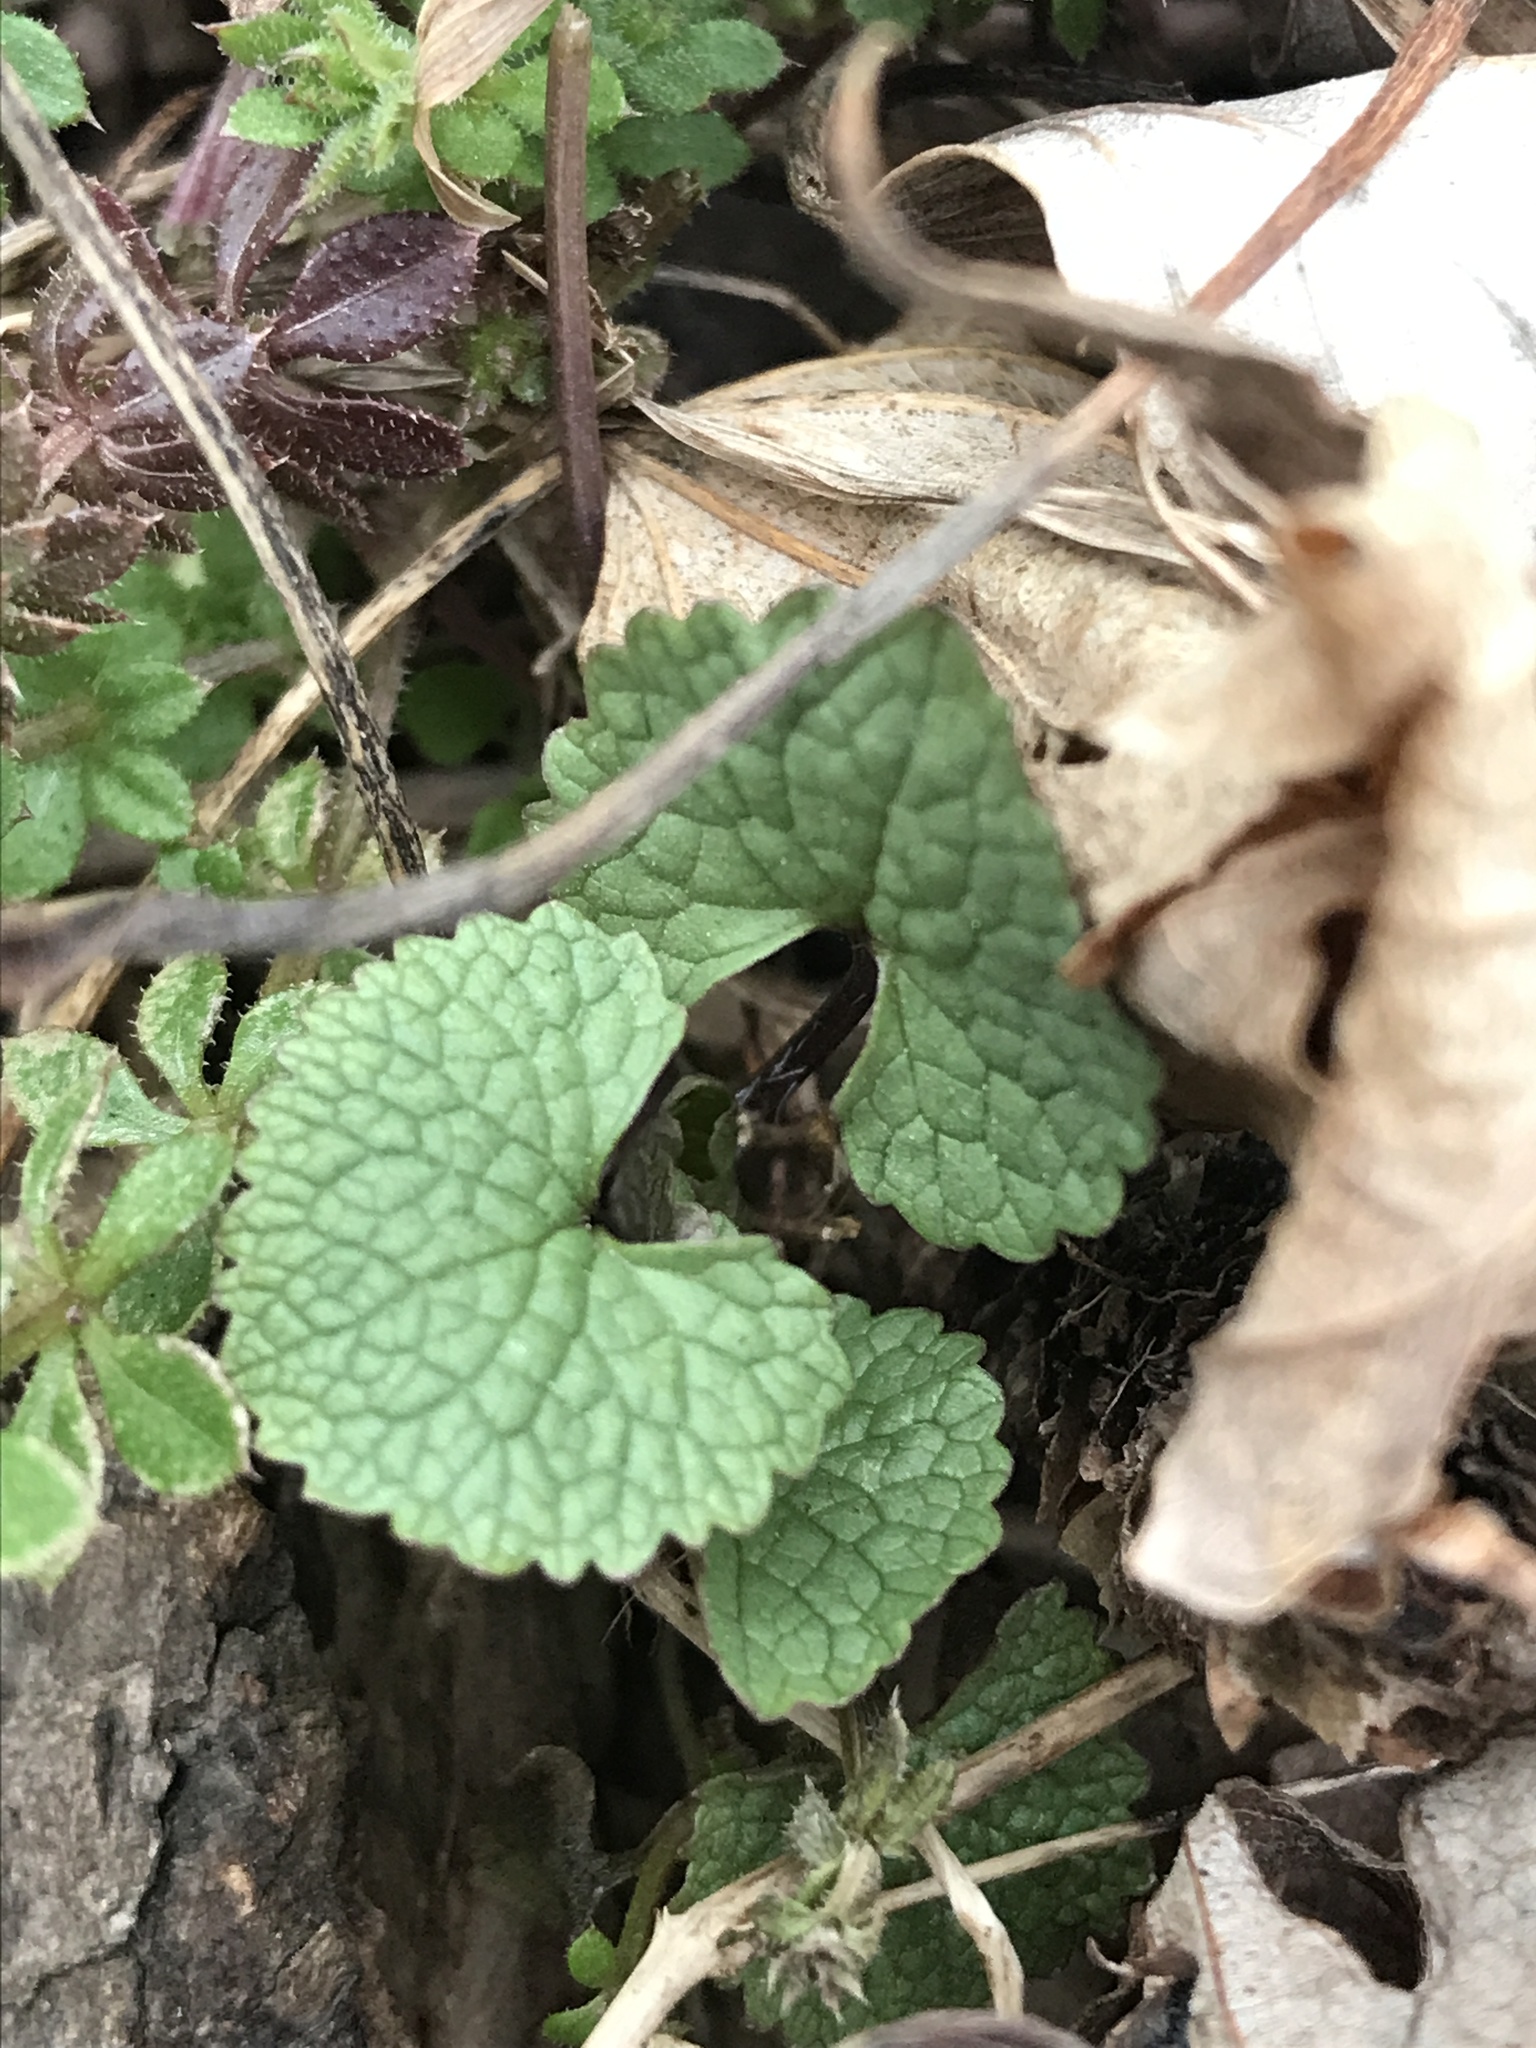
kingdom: Plantae
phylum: Tracheophyta
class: Magnoliopsida
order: Brassicales
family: Brassicaceae
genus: Alliaria
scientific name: Alliaria petiolata
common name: Garlic mustard
